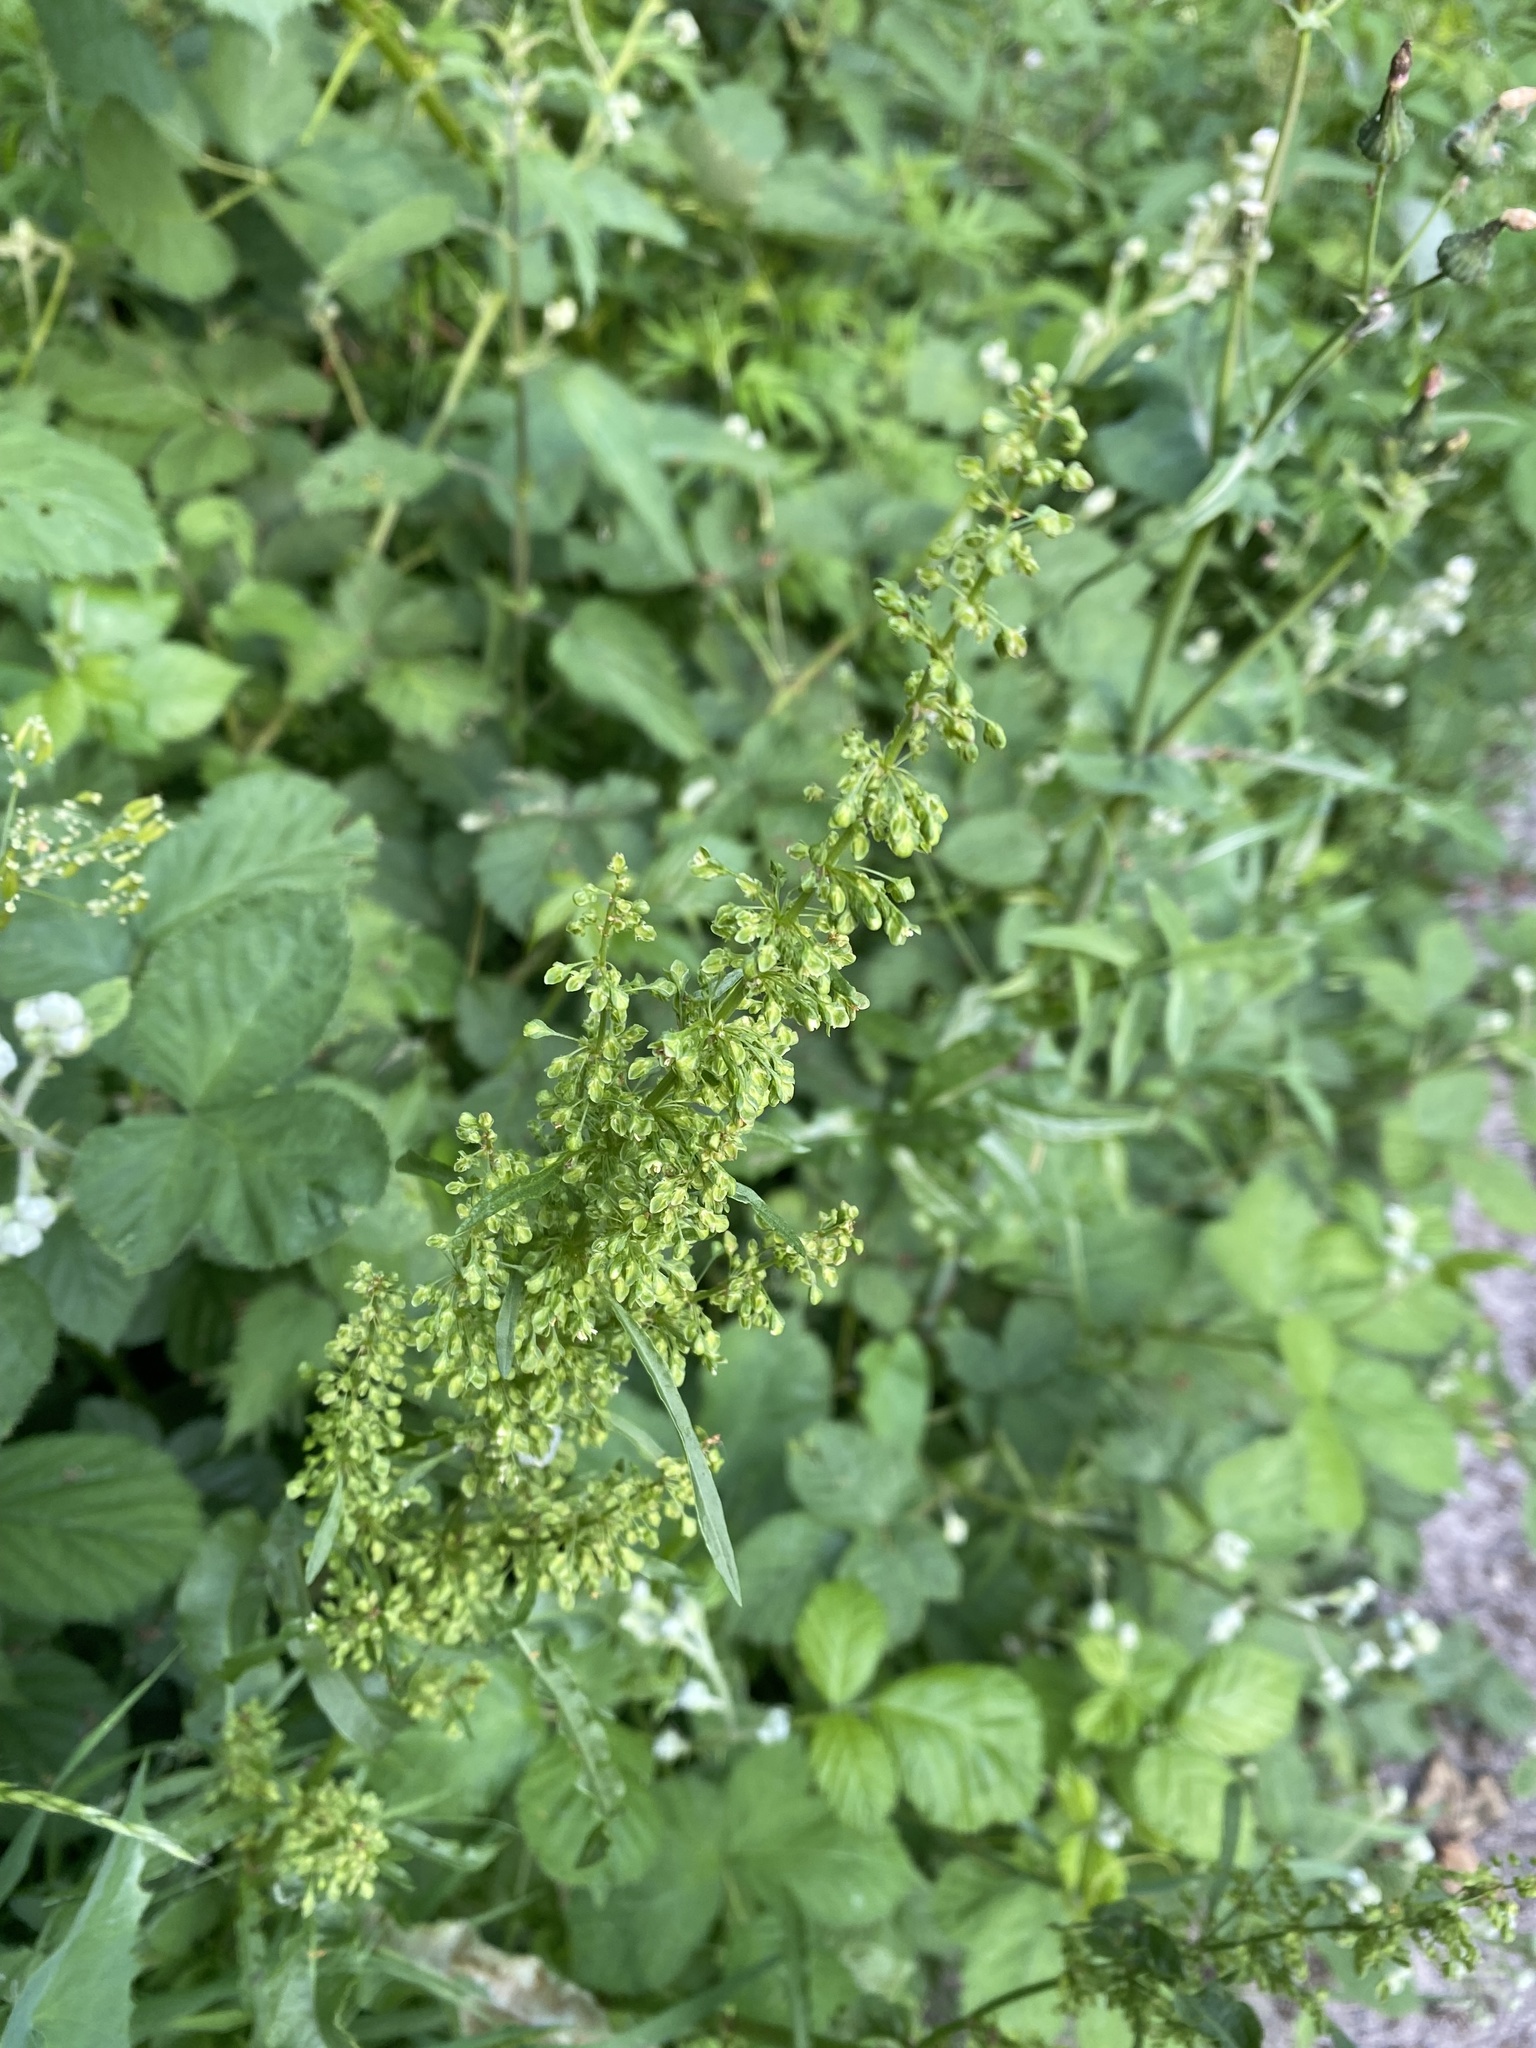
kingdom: Plantae
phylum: Tracheophyta
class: Magnoliopsida
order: Caryophyllales
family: Polygonaceae
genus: Rumex
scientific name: Rumex crispus
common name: Curled dock
